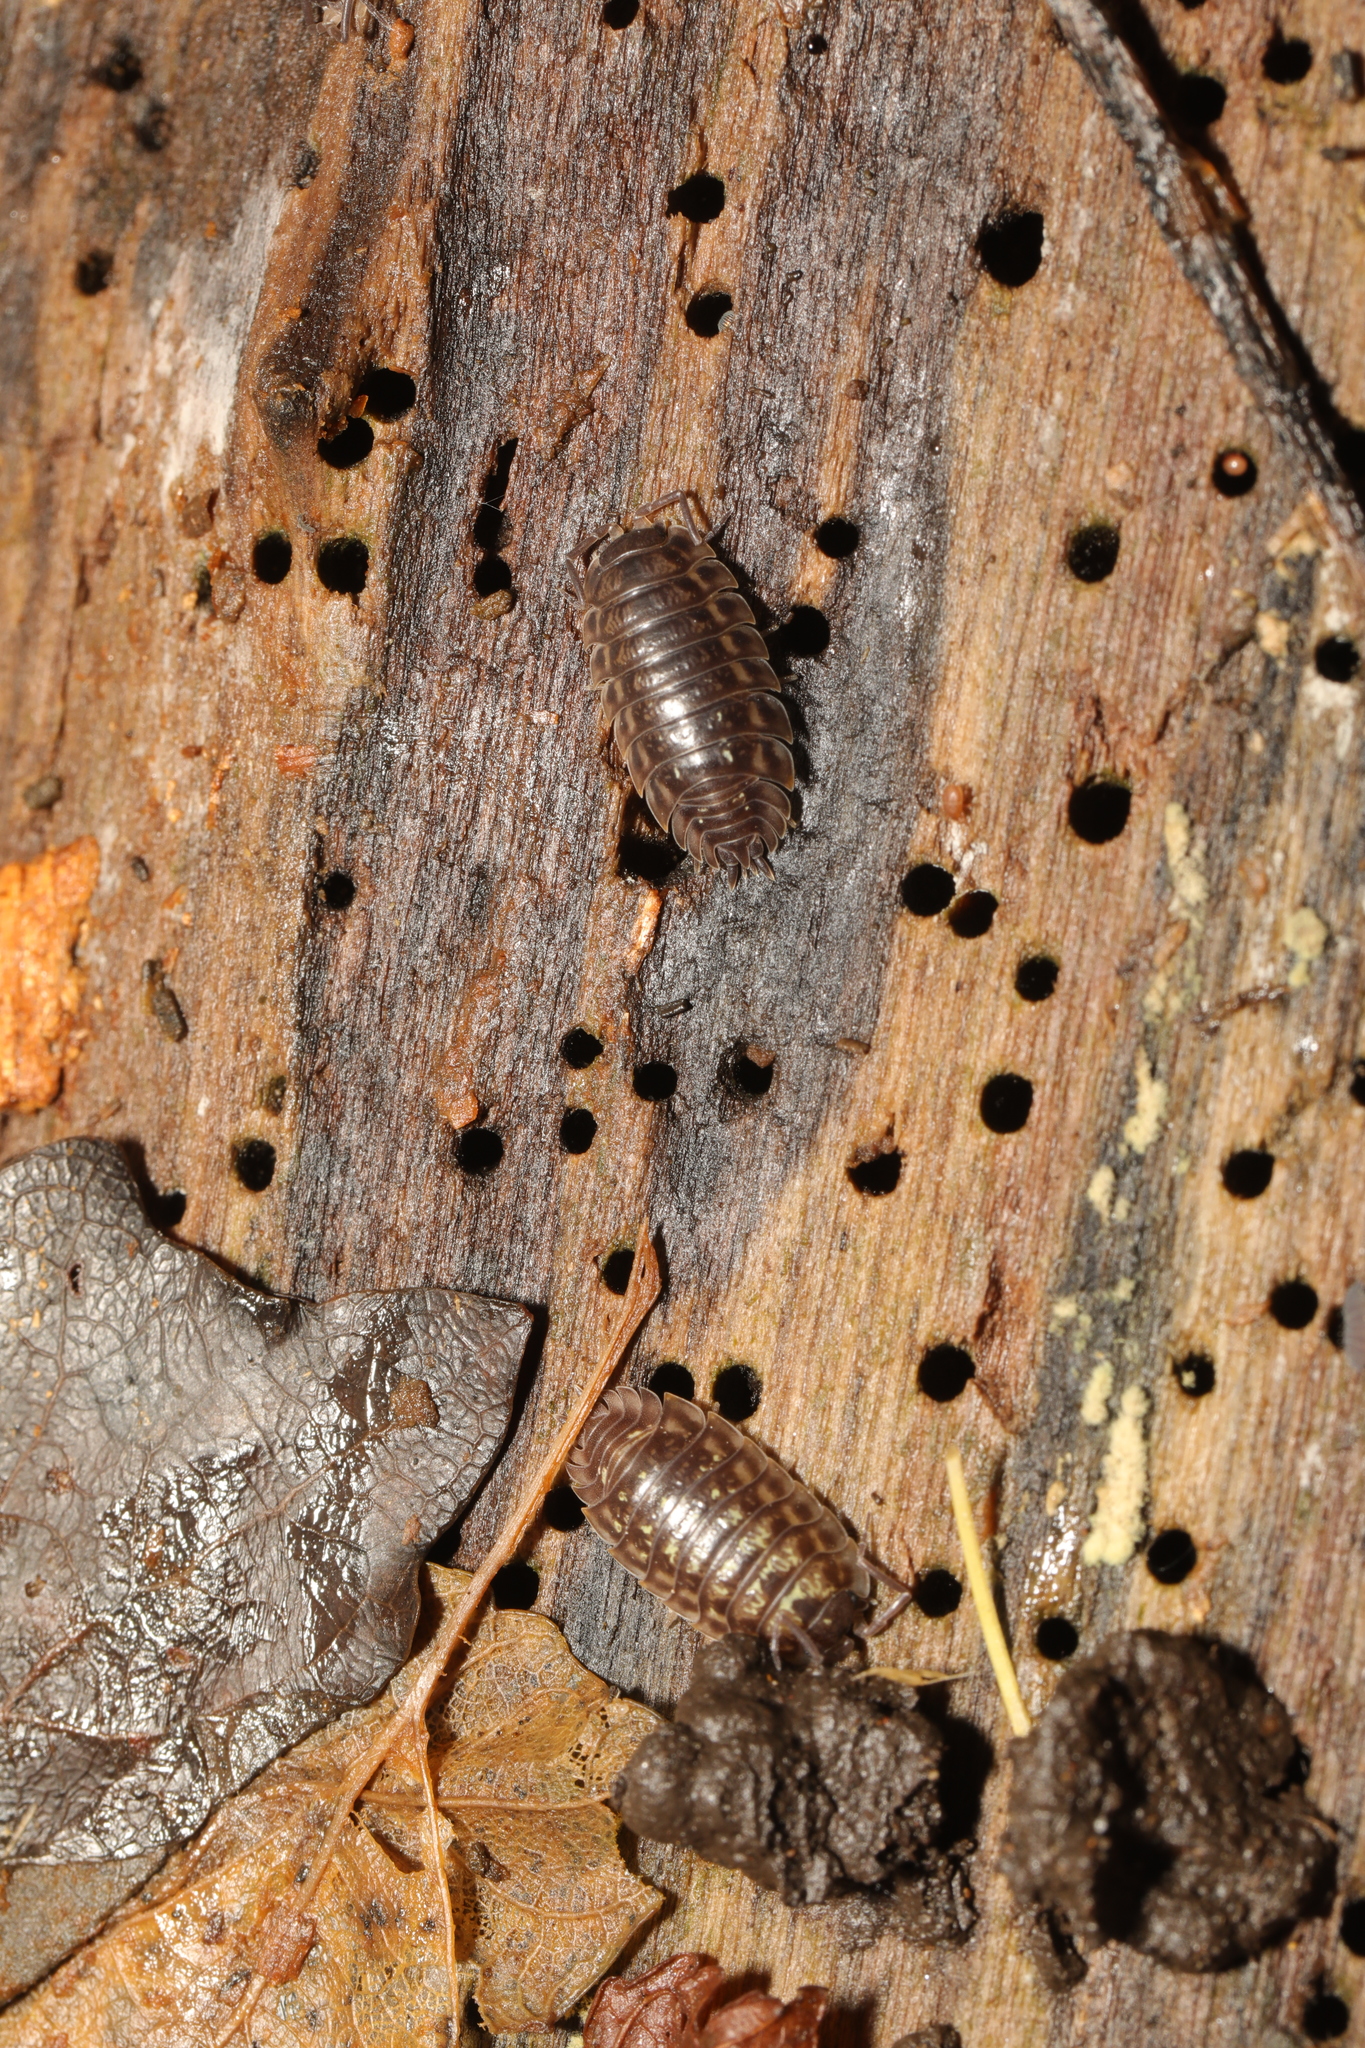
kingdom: Animalia
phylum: Arthropoda
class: Malacostraca
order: Isopoda
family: Oniscidae
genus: Oniscus
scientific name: Oniscus asellus
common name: Common shiny woodlouse
